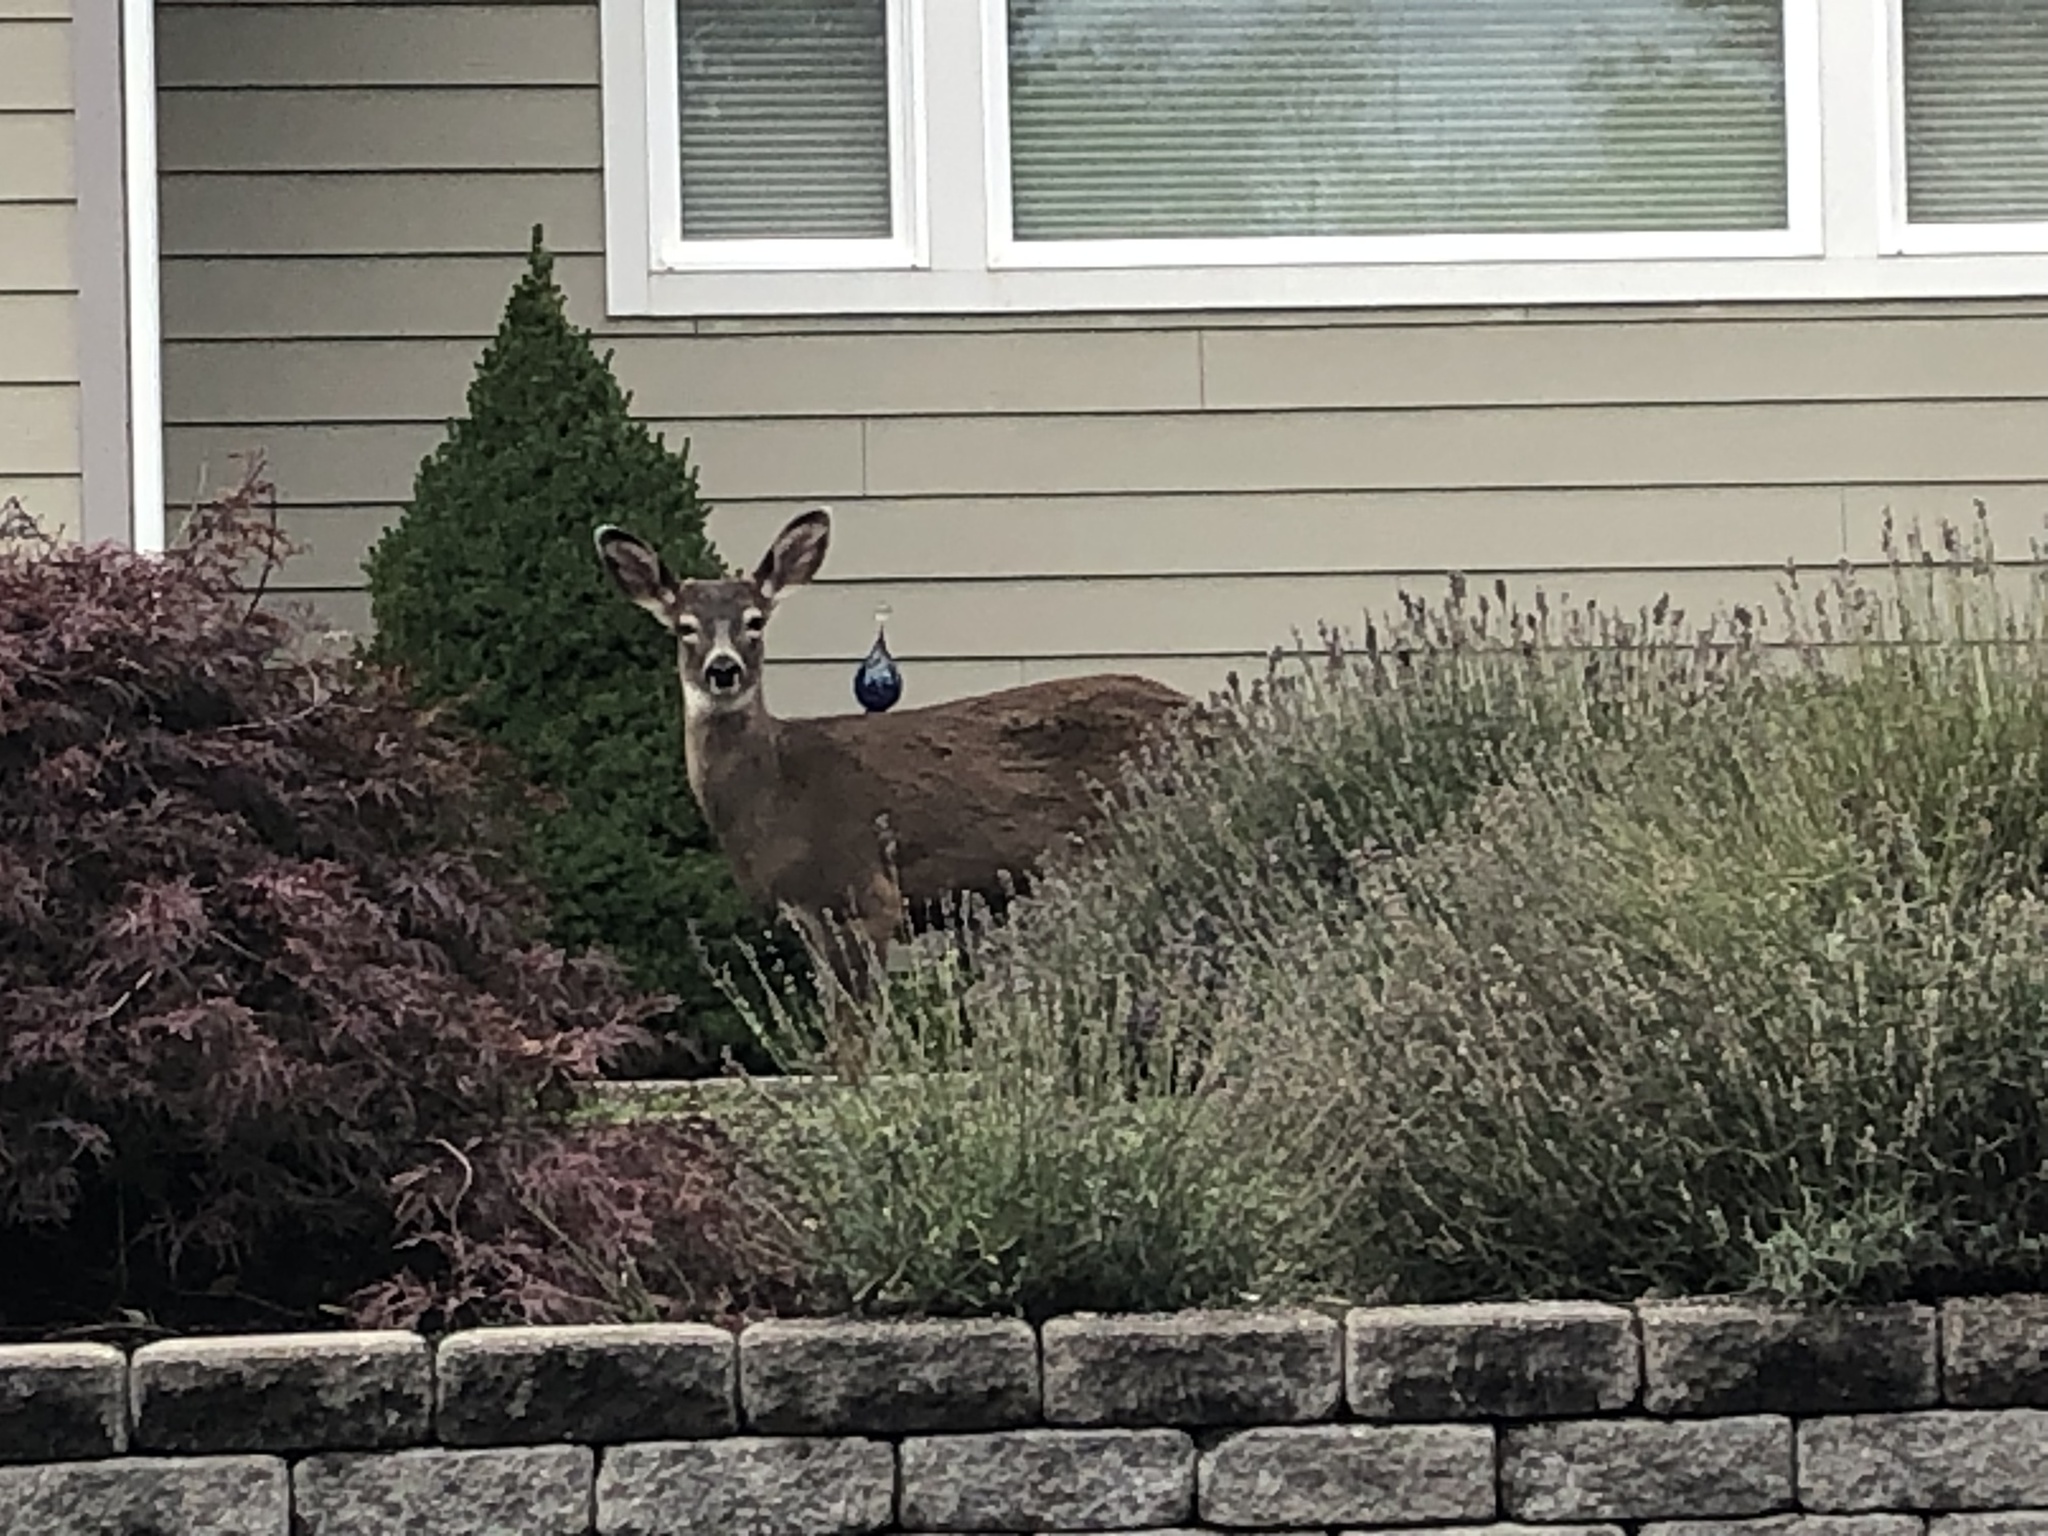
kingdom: Animalia
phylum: Chordata
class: Mammalia
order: Artiodactyla
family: Cervidae
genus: Odocoileus
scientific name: Odocoileus hemionus
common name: Mule deer
